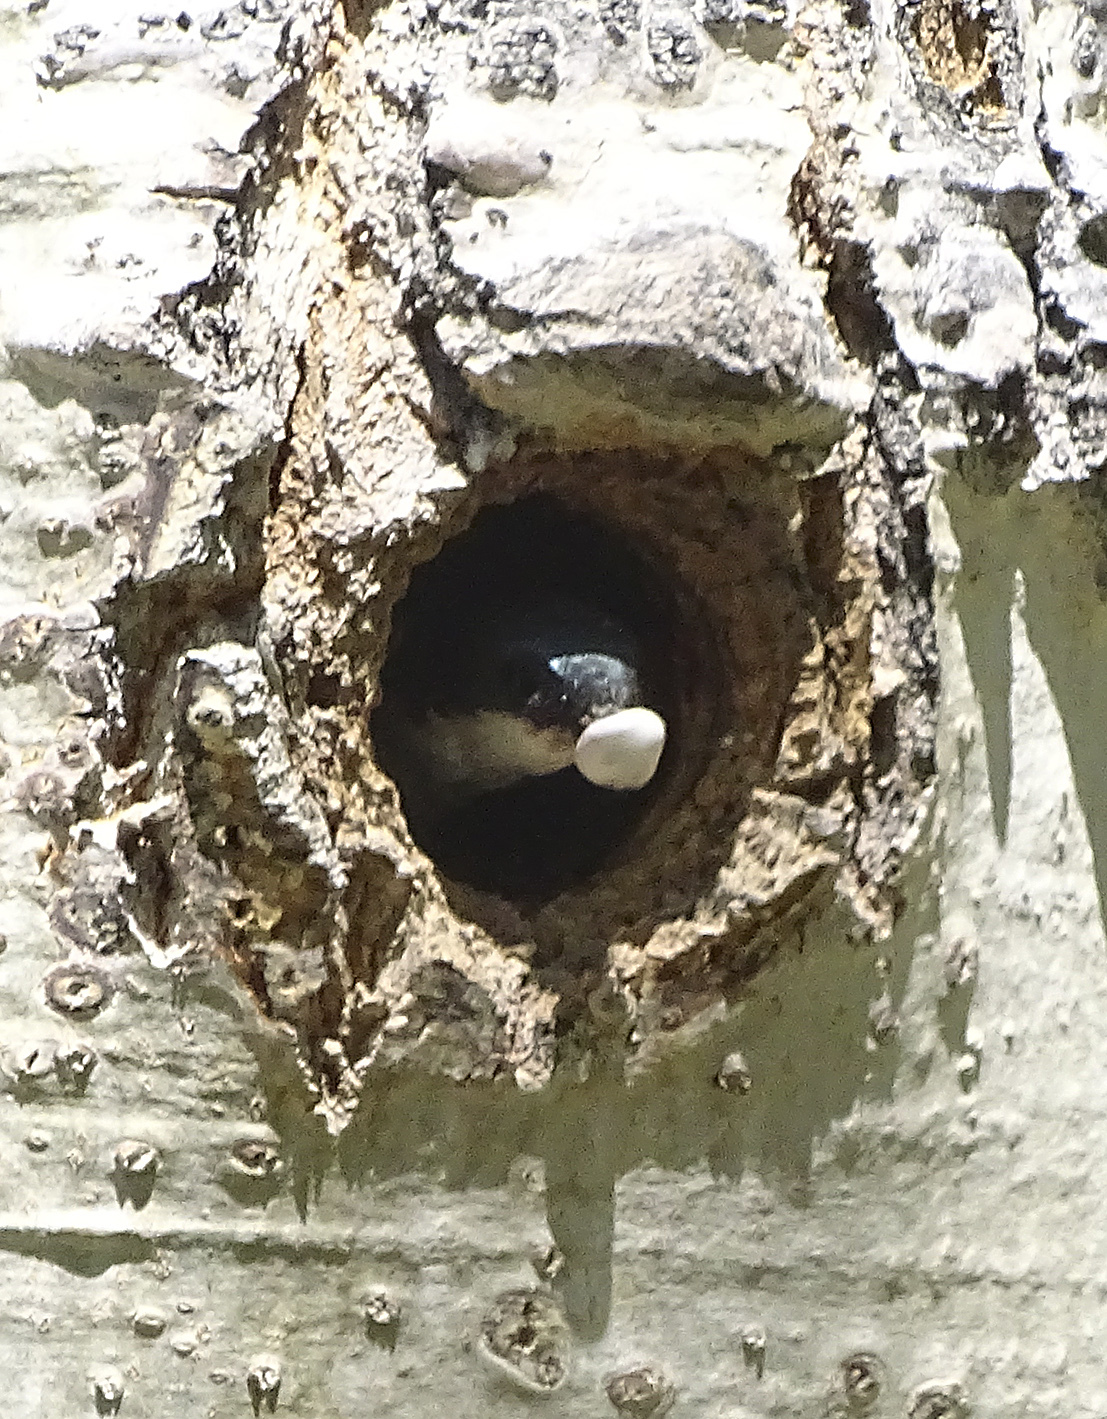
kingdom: Animalia
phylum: Chordata
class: Aves
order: Passeriformes
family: Hirundinidae
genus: Tachycineta
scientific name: Tachycineta bicolor
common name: Tree swallow
